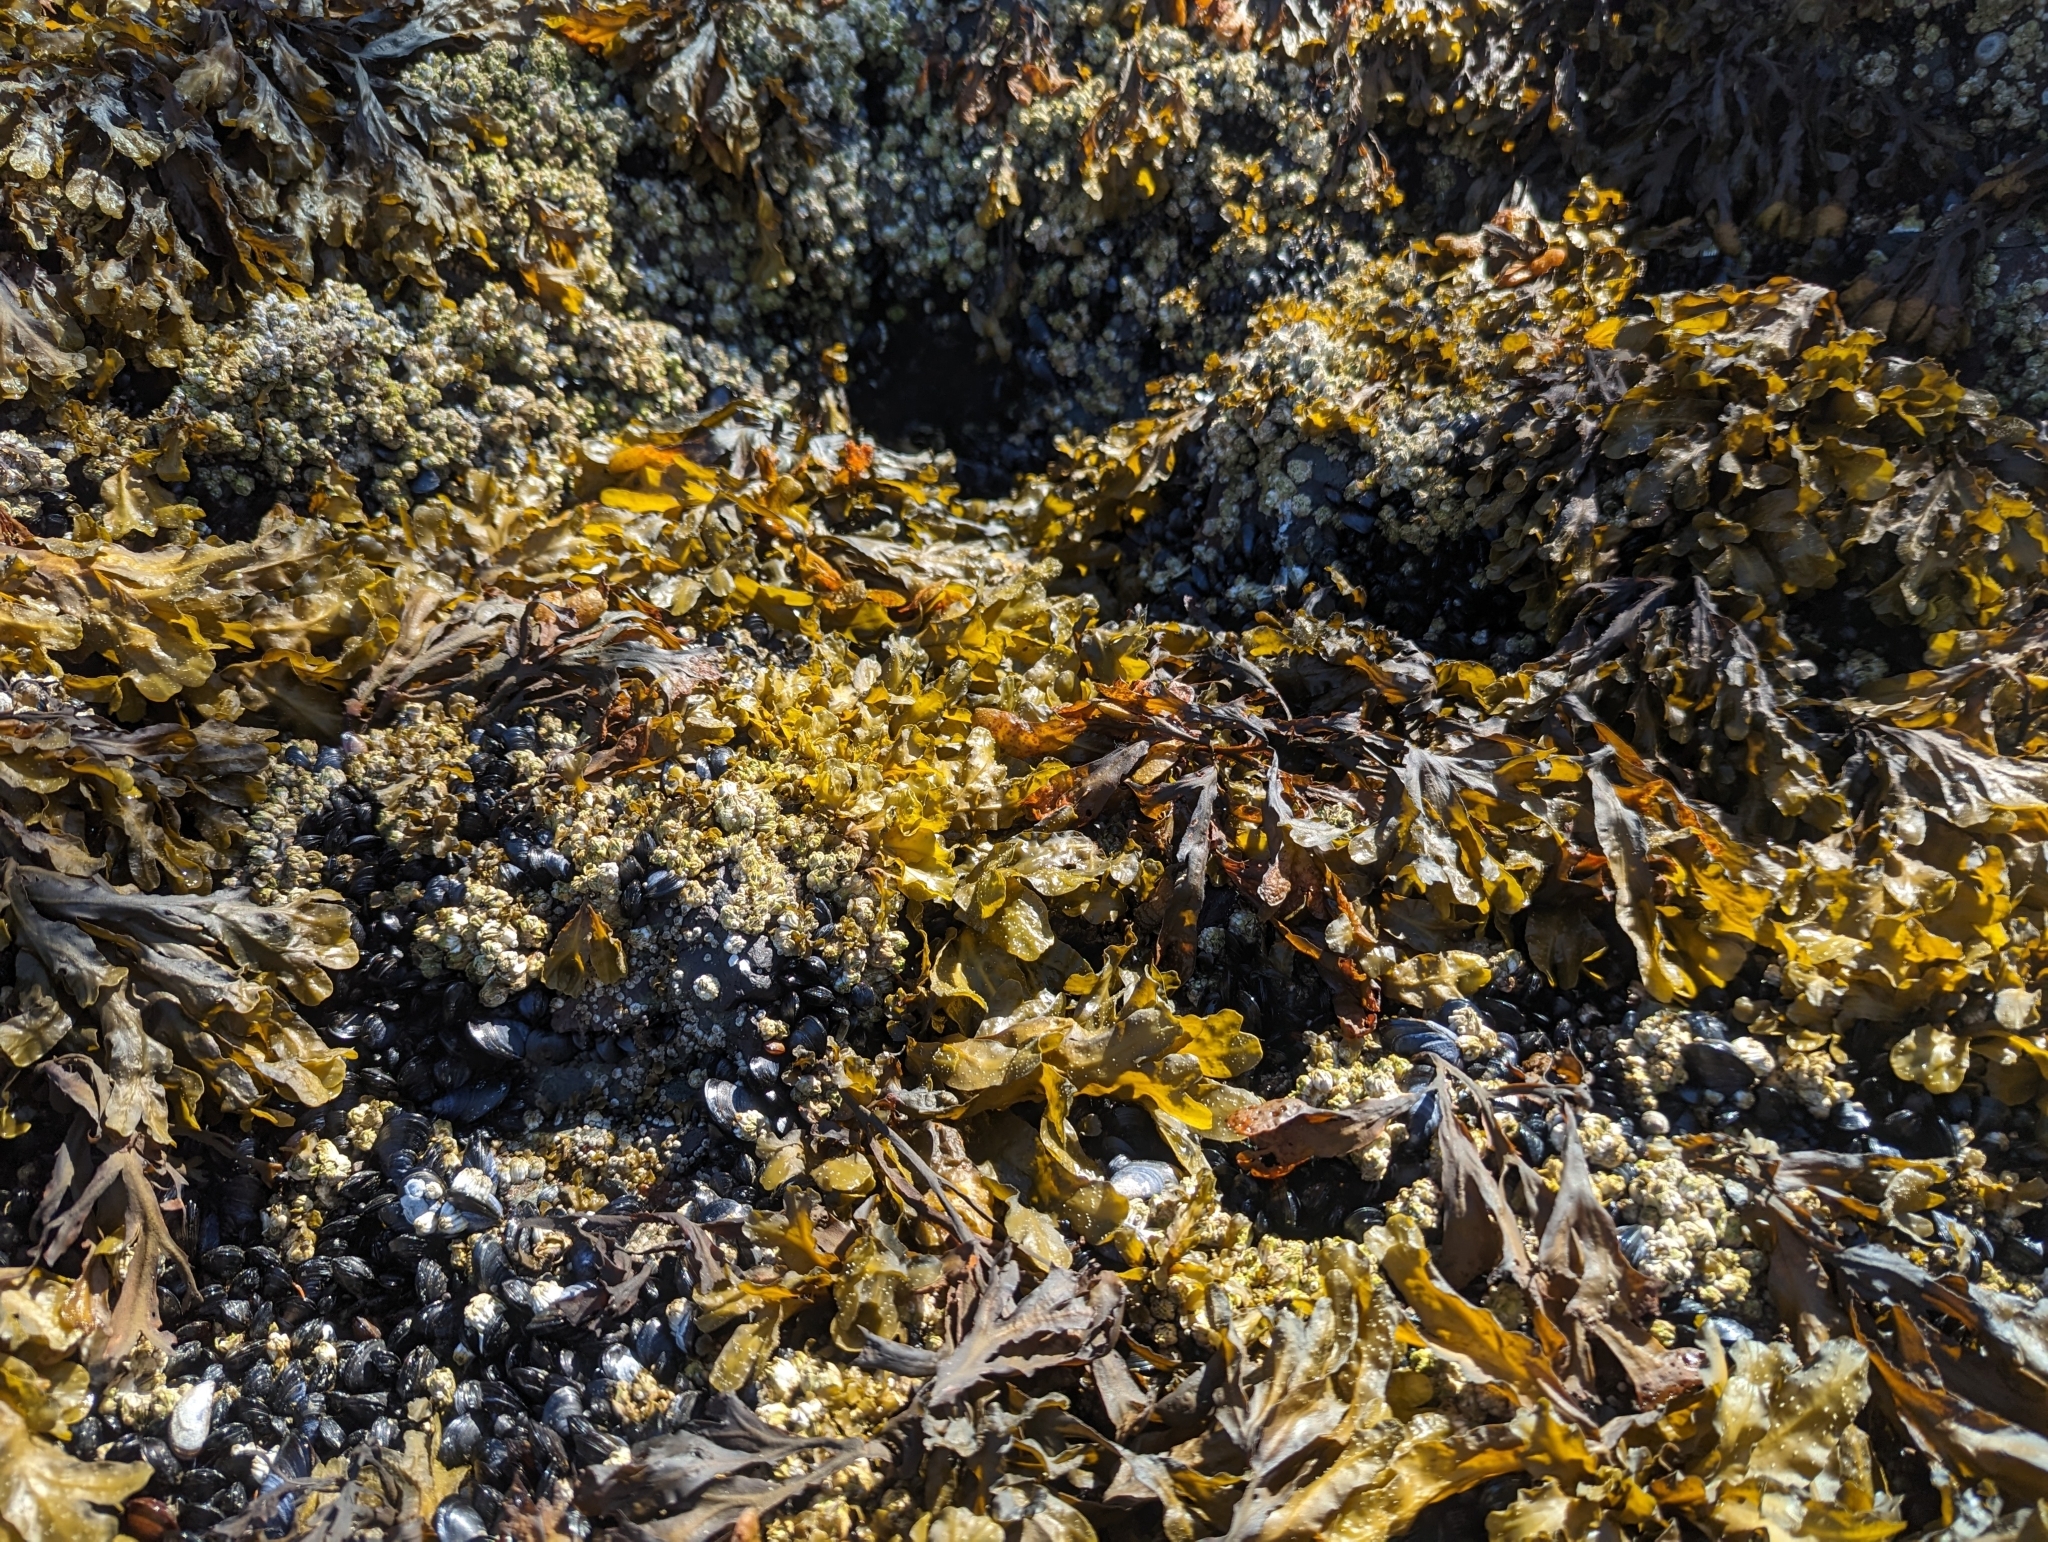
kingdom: Chromista
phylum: Ochrophyta
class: Phaeophyceae
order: Fucales
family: Fucaceae
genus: Fucus
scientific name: Fucus distichus
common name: Rockweed
